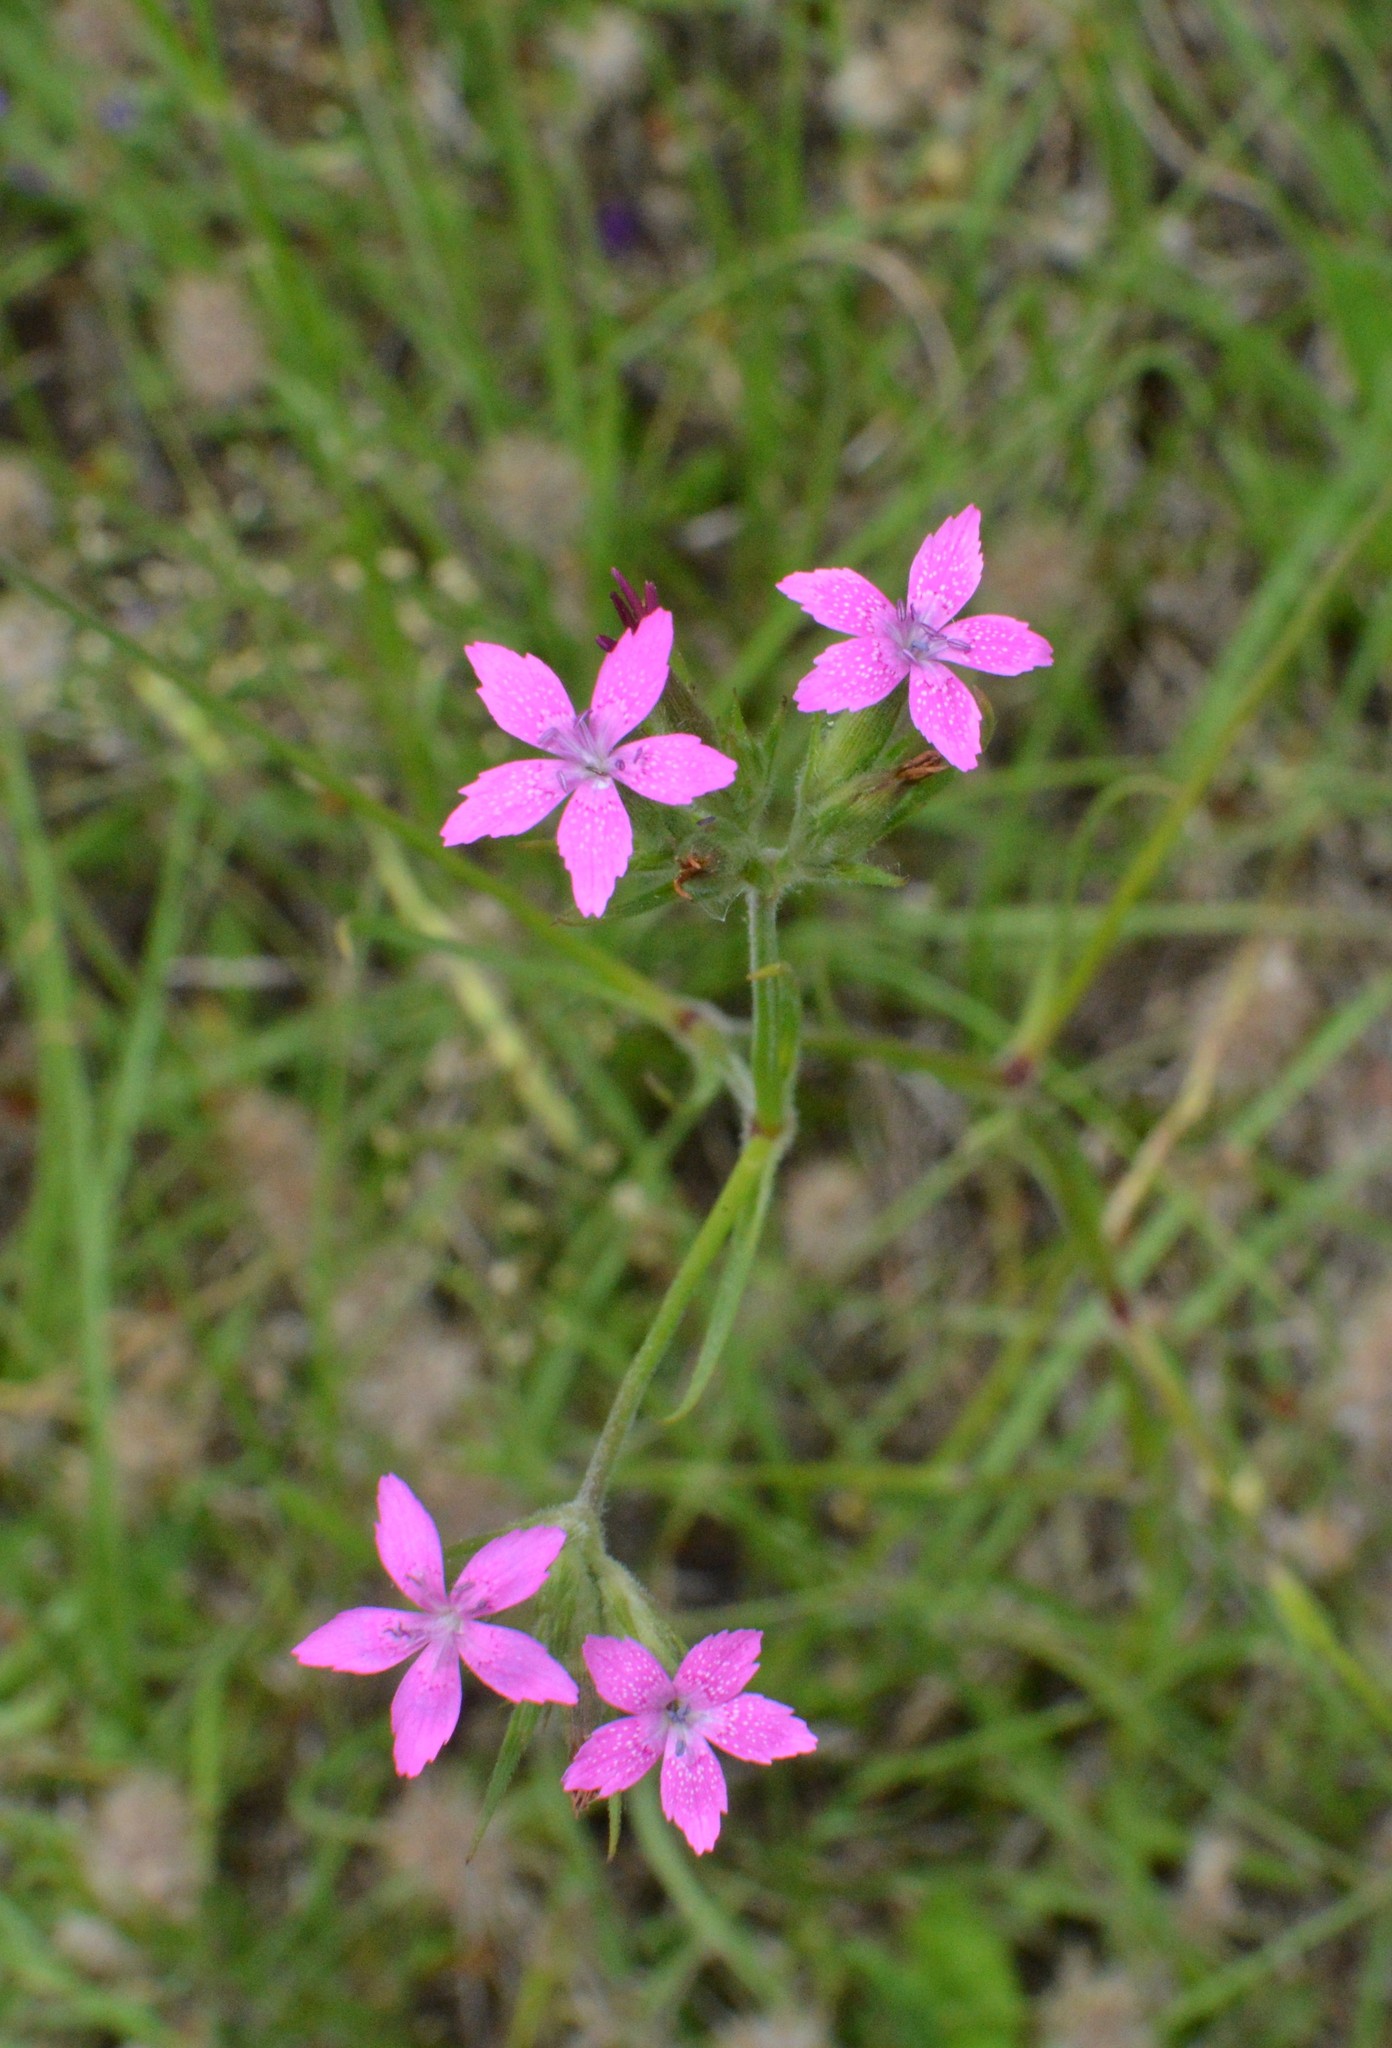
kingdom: Plantae
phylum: Tracheophyta
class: Magnoliopsida
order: Caryophyllales
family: Caryophyllaceae
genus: Dianthus
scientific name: Dianthus armeria
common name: Deptford pink
